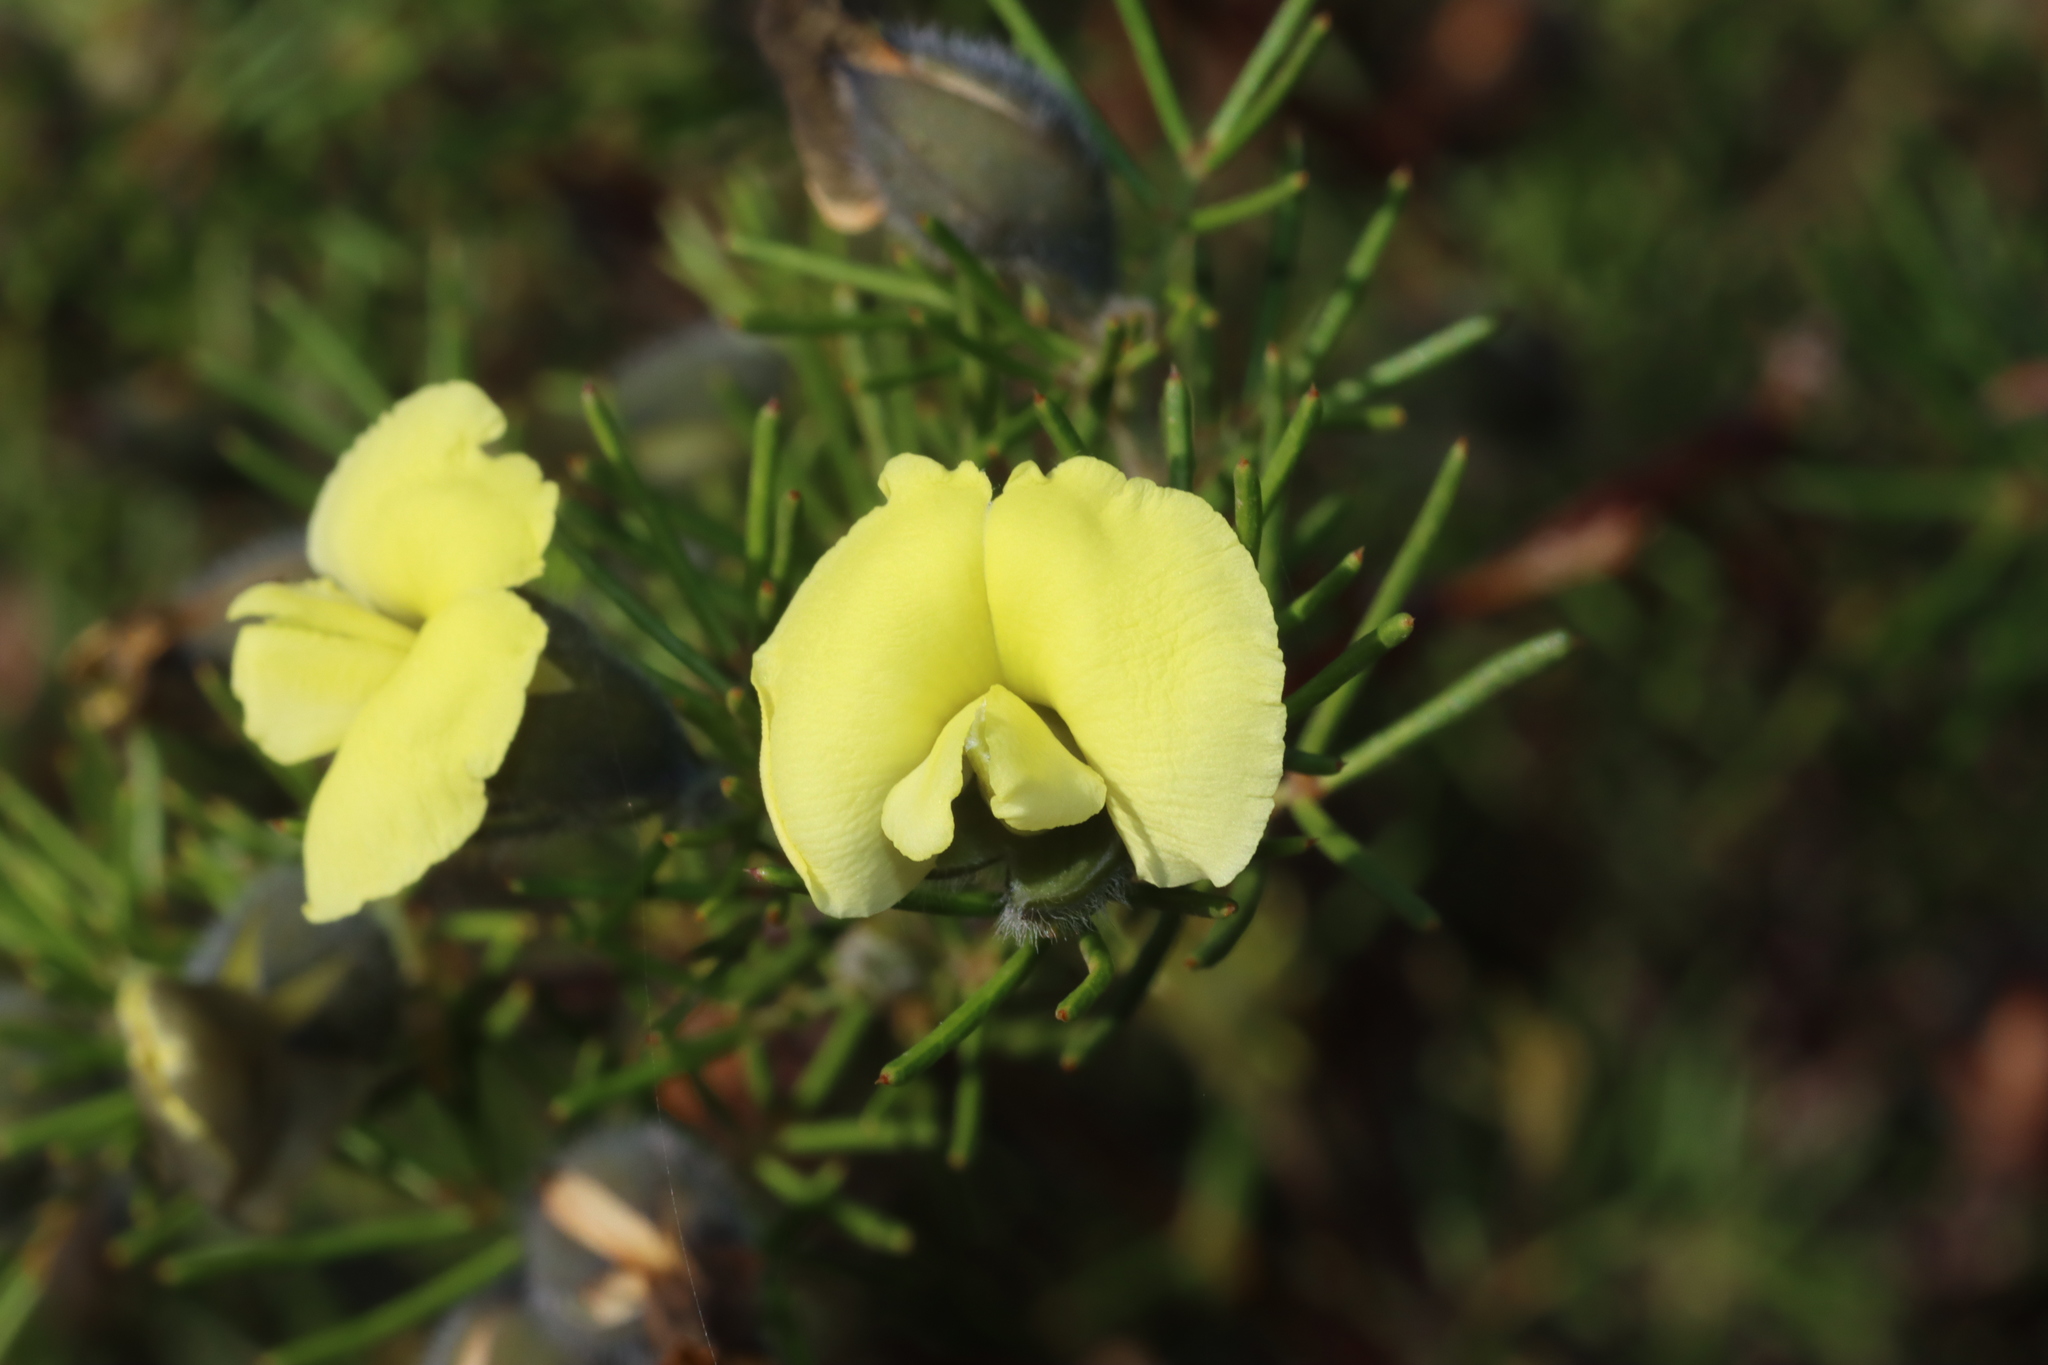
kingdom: Plantae
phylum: Tracheophyta
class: Magnoliopsida
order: Fabales
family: Fabaceae
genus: Gompholobium
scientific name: Gompholobium tomentosum
